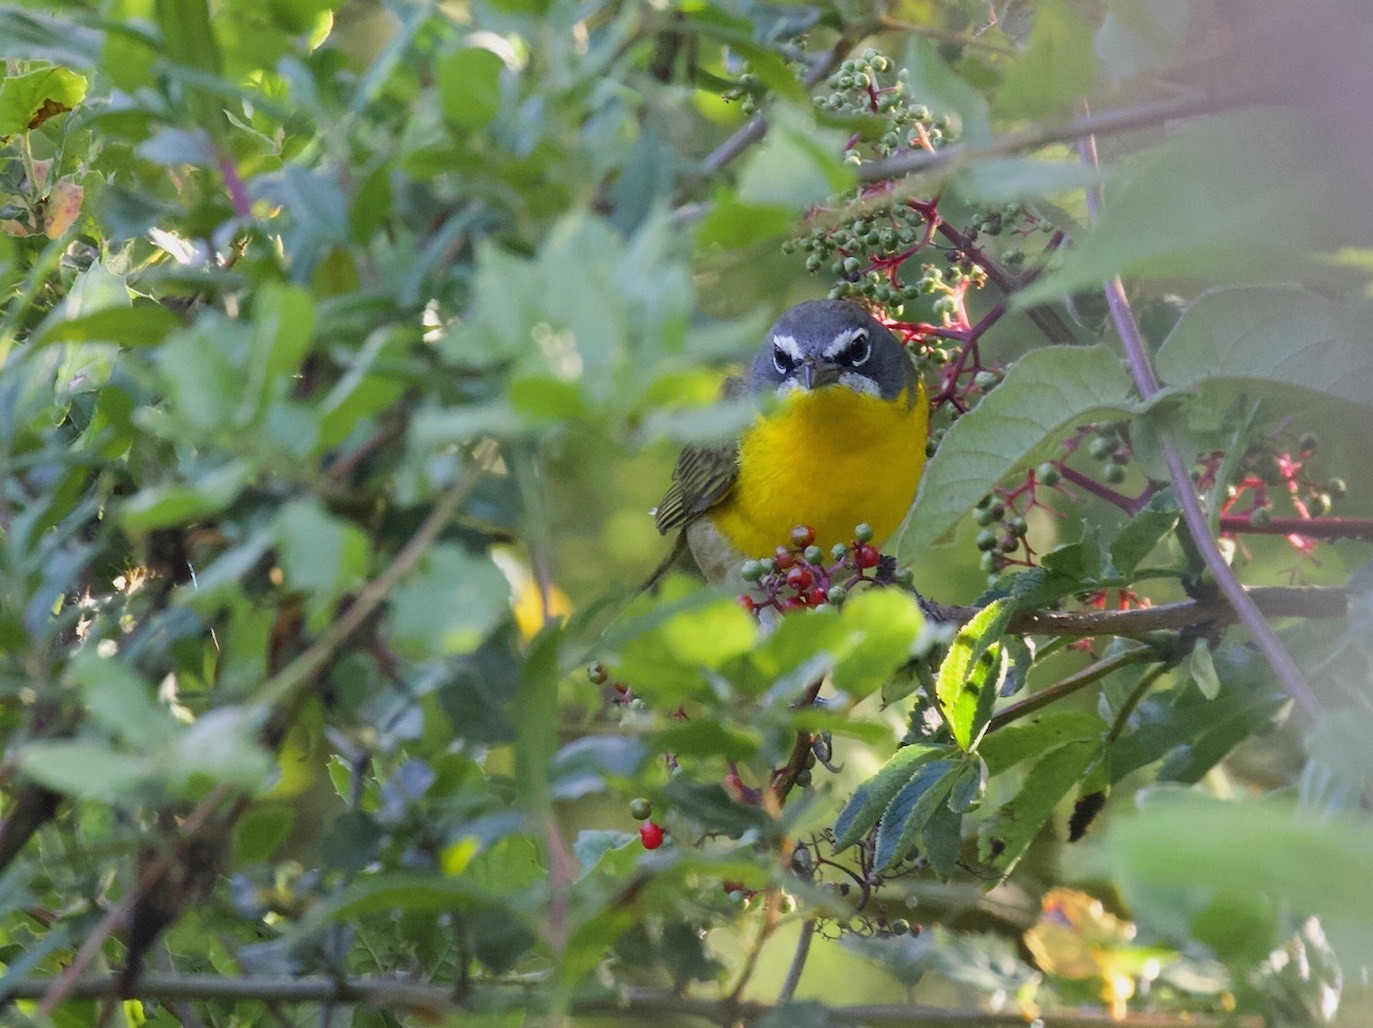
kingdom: Animalia
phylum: Chordata
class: Aves
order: Passeriformes
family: Parulidae
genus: Icteria
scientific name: Icteria virens
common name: Yellow-breasted chat
